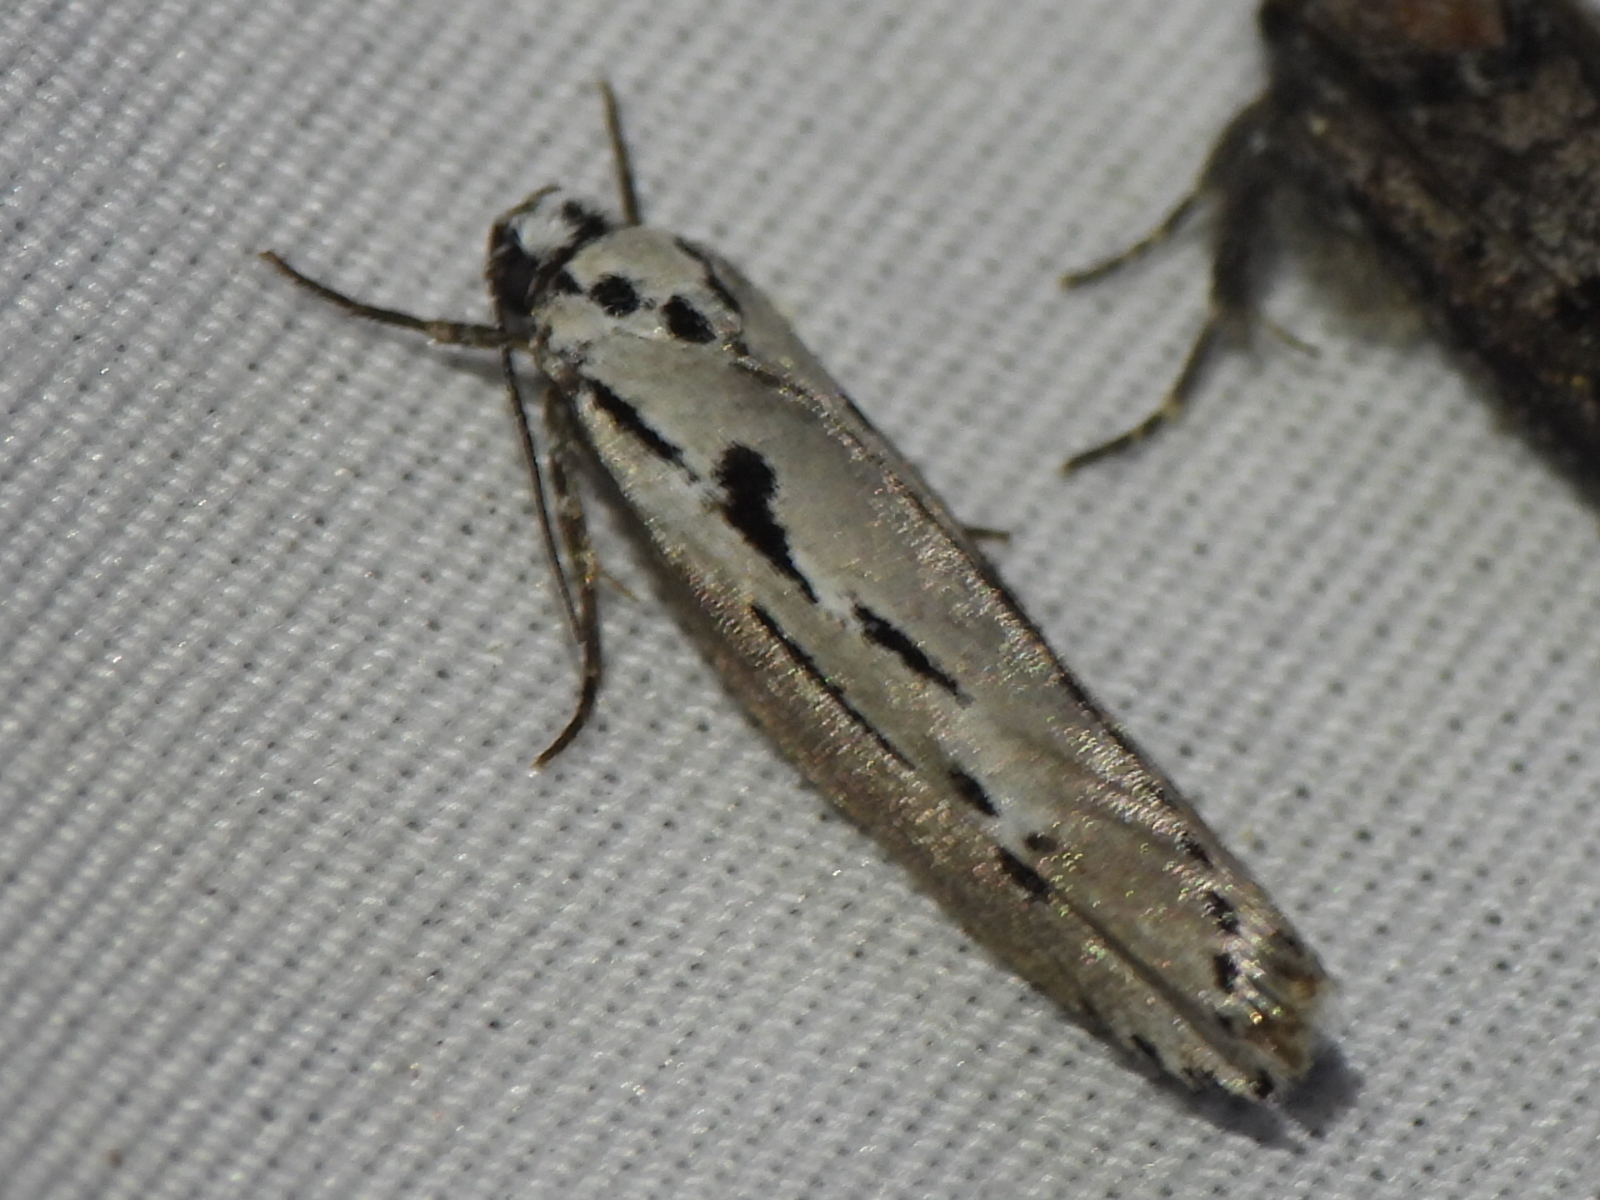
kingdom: Animalia
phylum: Arthropoda
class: Insecta
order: Lepidoptera
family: Ethmiidae
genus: Ethmia
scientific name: Ethmia discostrigella
